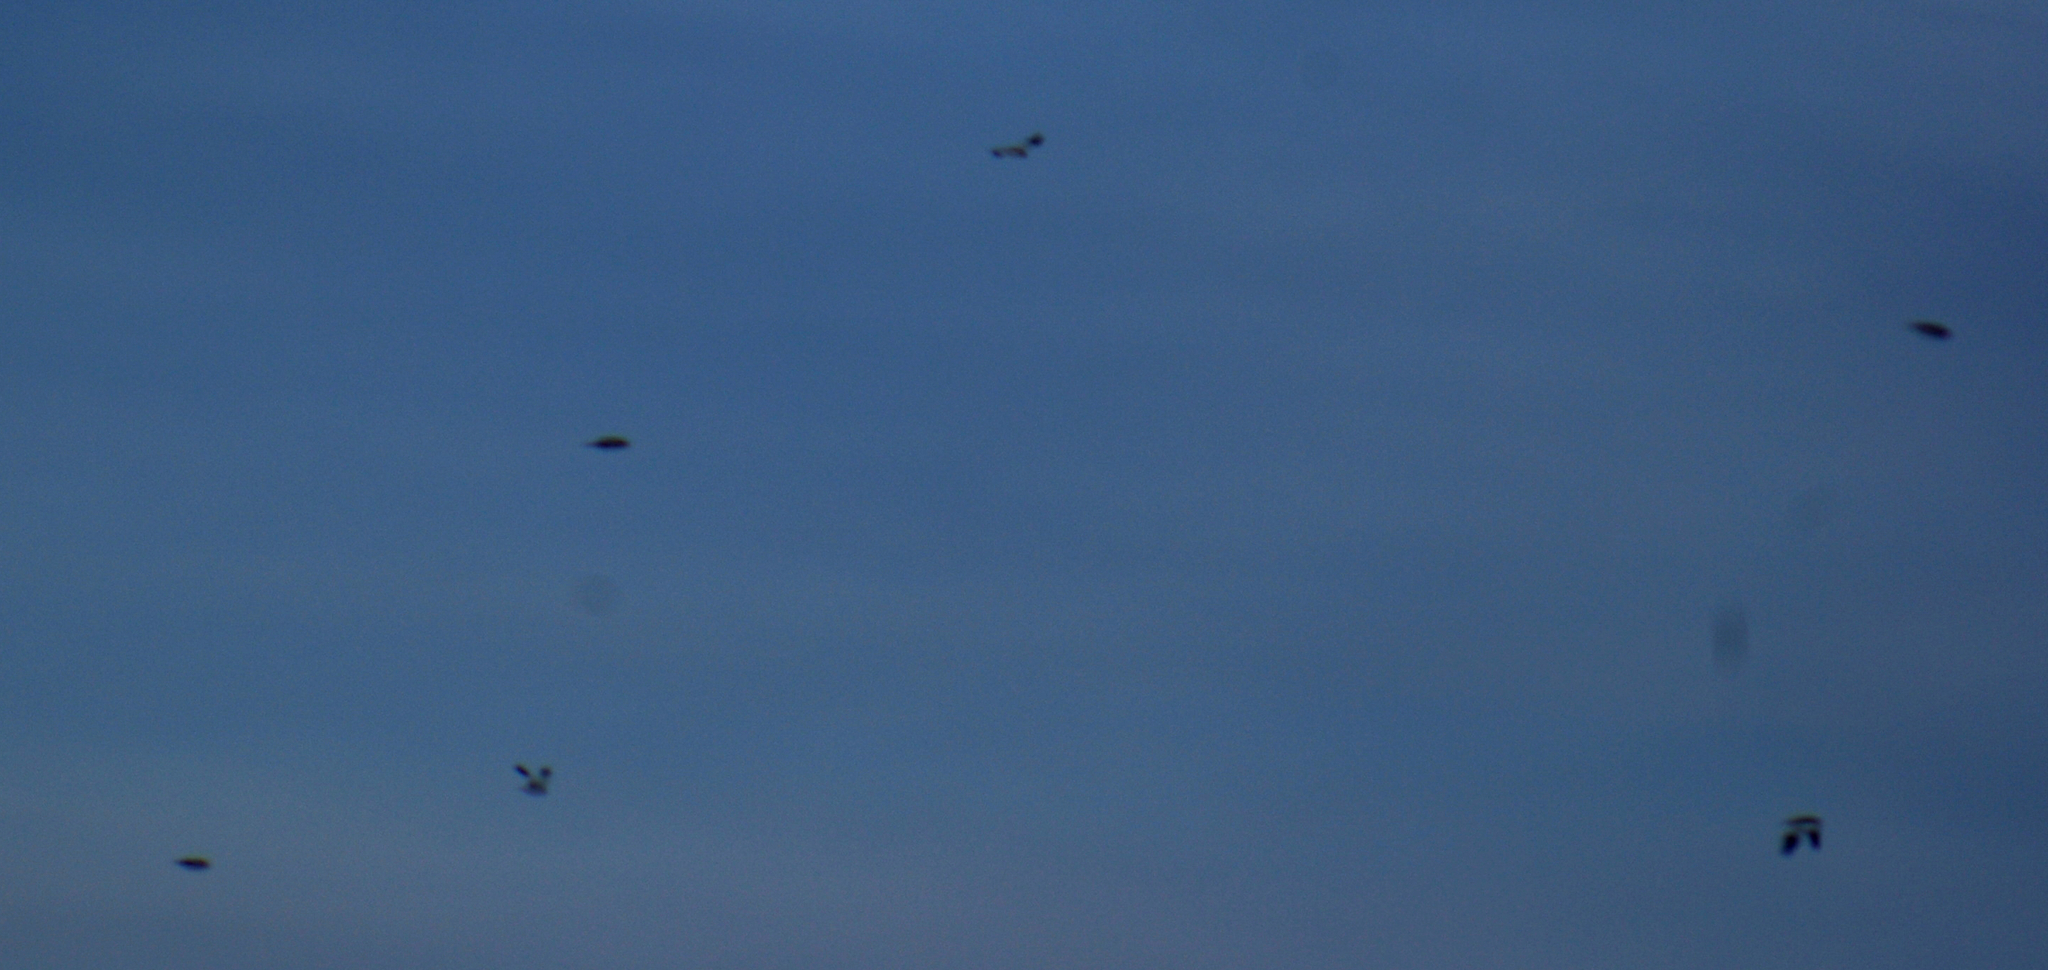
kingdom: Animalia
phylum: Chordata
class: Aves
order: Passeriformes
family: Calcariidae
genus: Plectrophenax
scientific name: Plectrophenax nivalis
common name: Snow bunting
